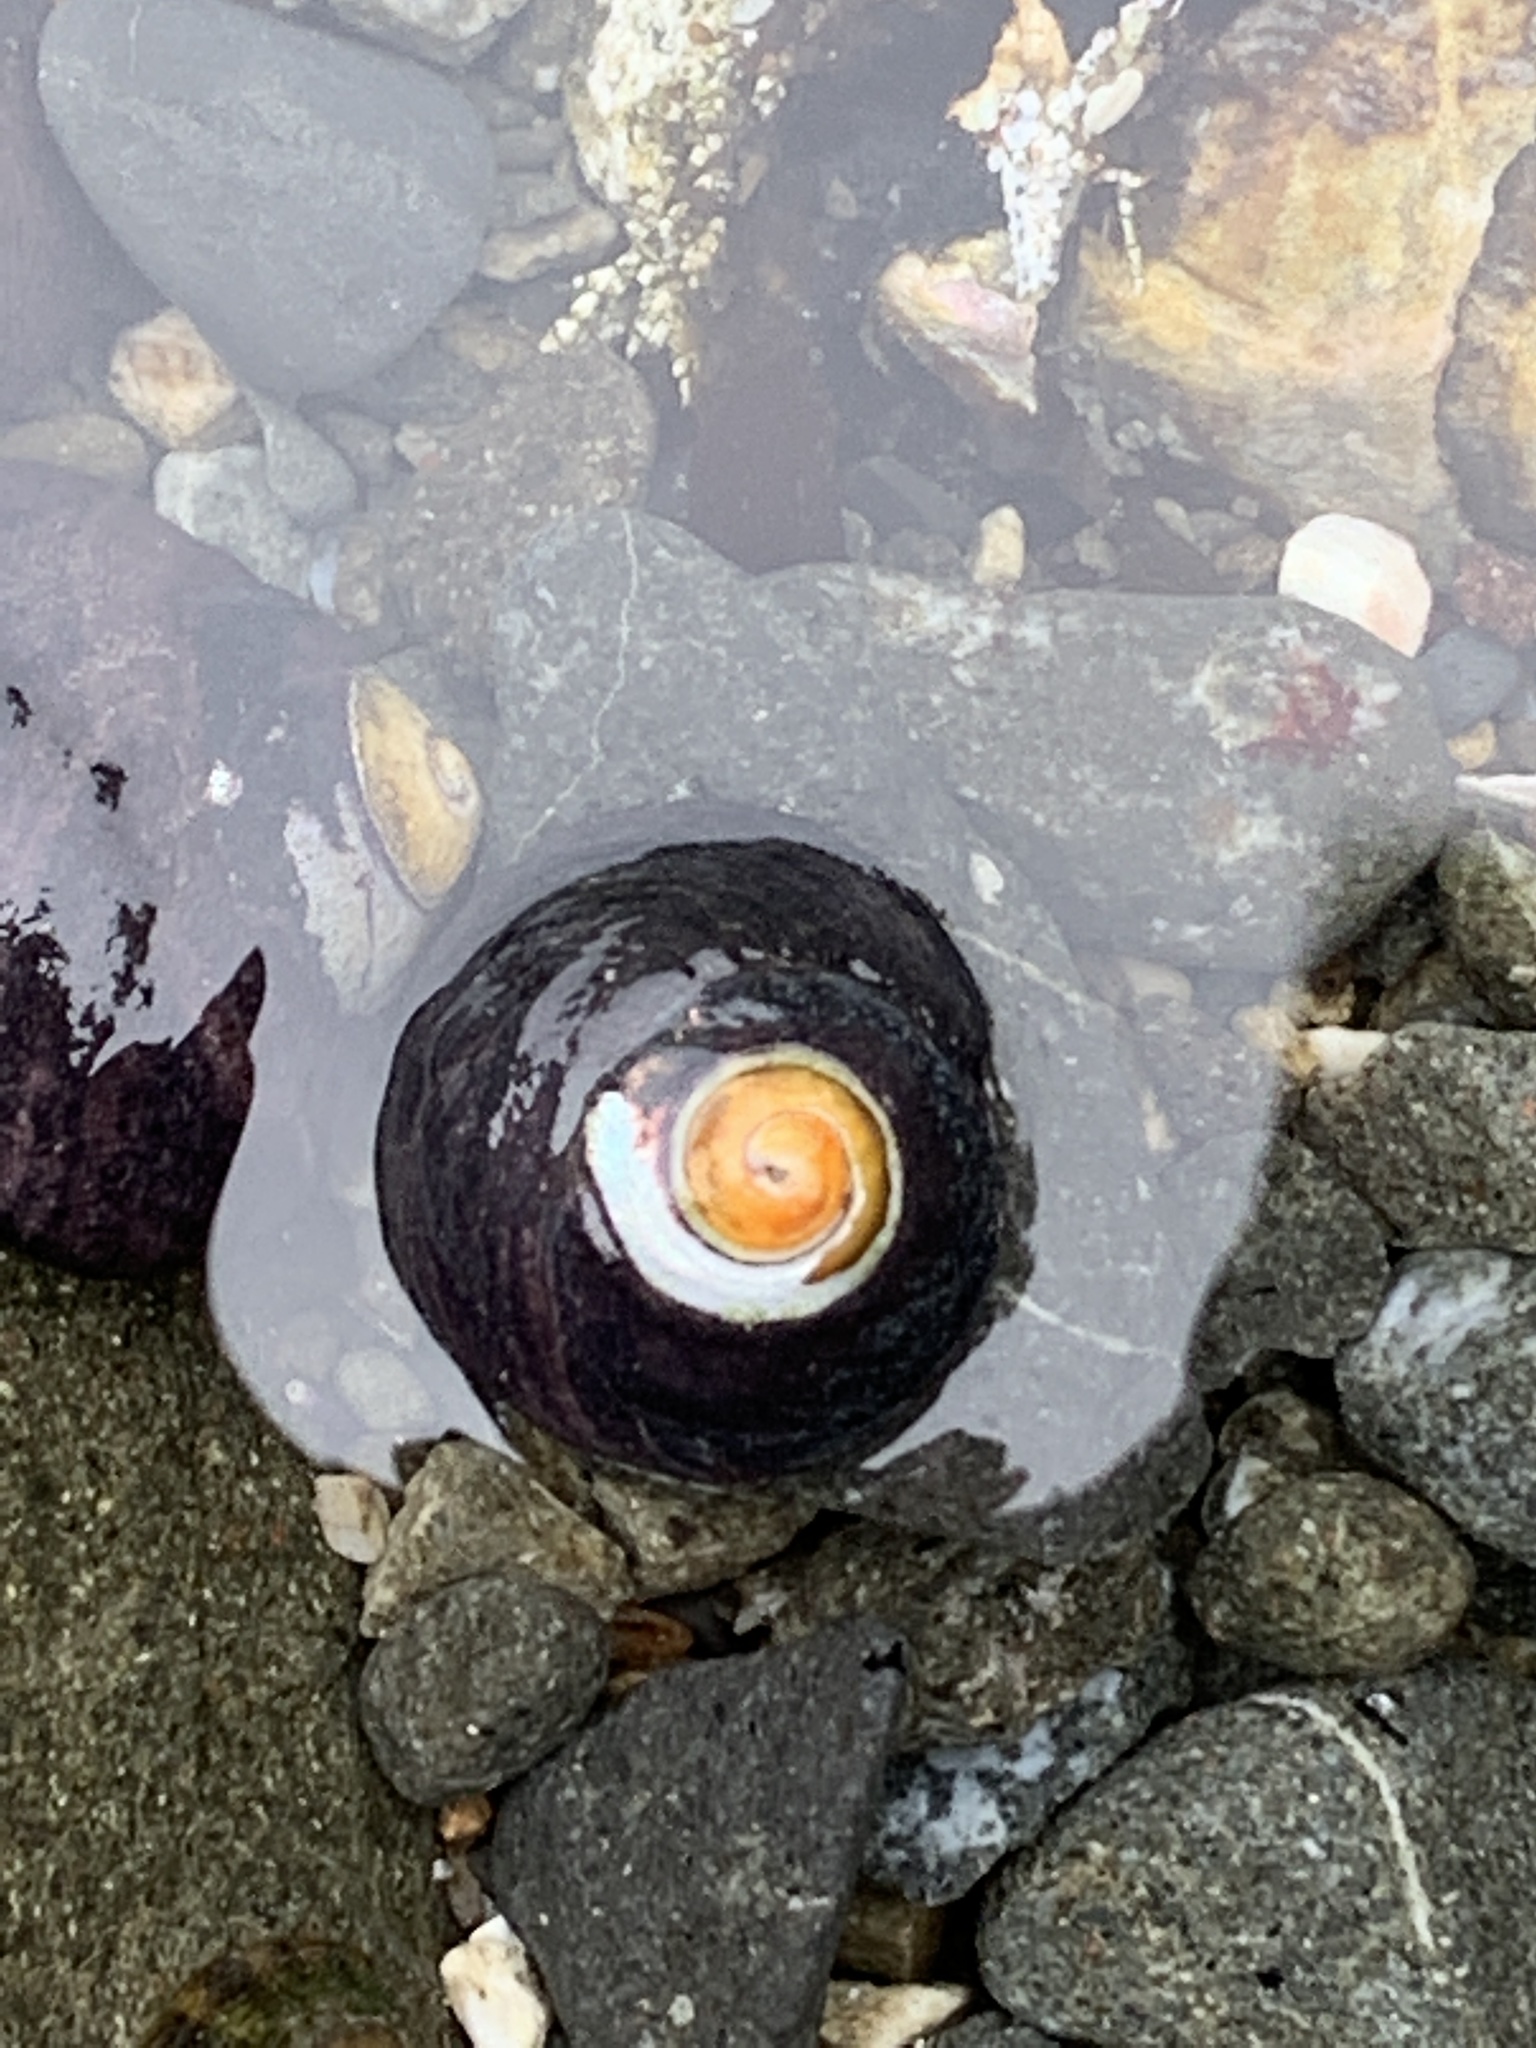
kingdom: Animalia
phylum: Mollusca
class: Gastropoda
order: Trochida
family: Tegulidae
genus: Tegula
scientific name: Tegula funebralis
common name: Black tegula
